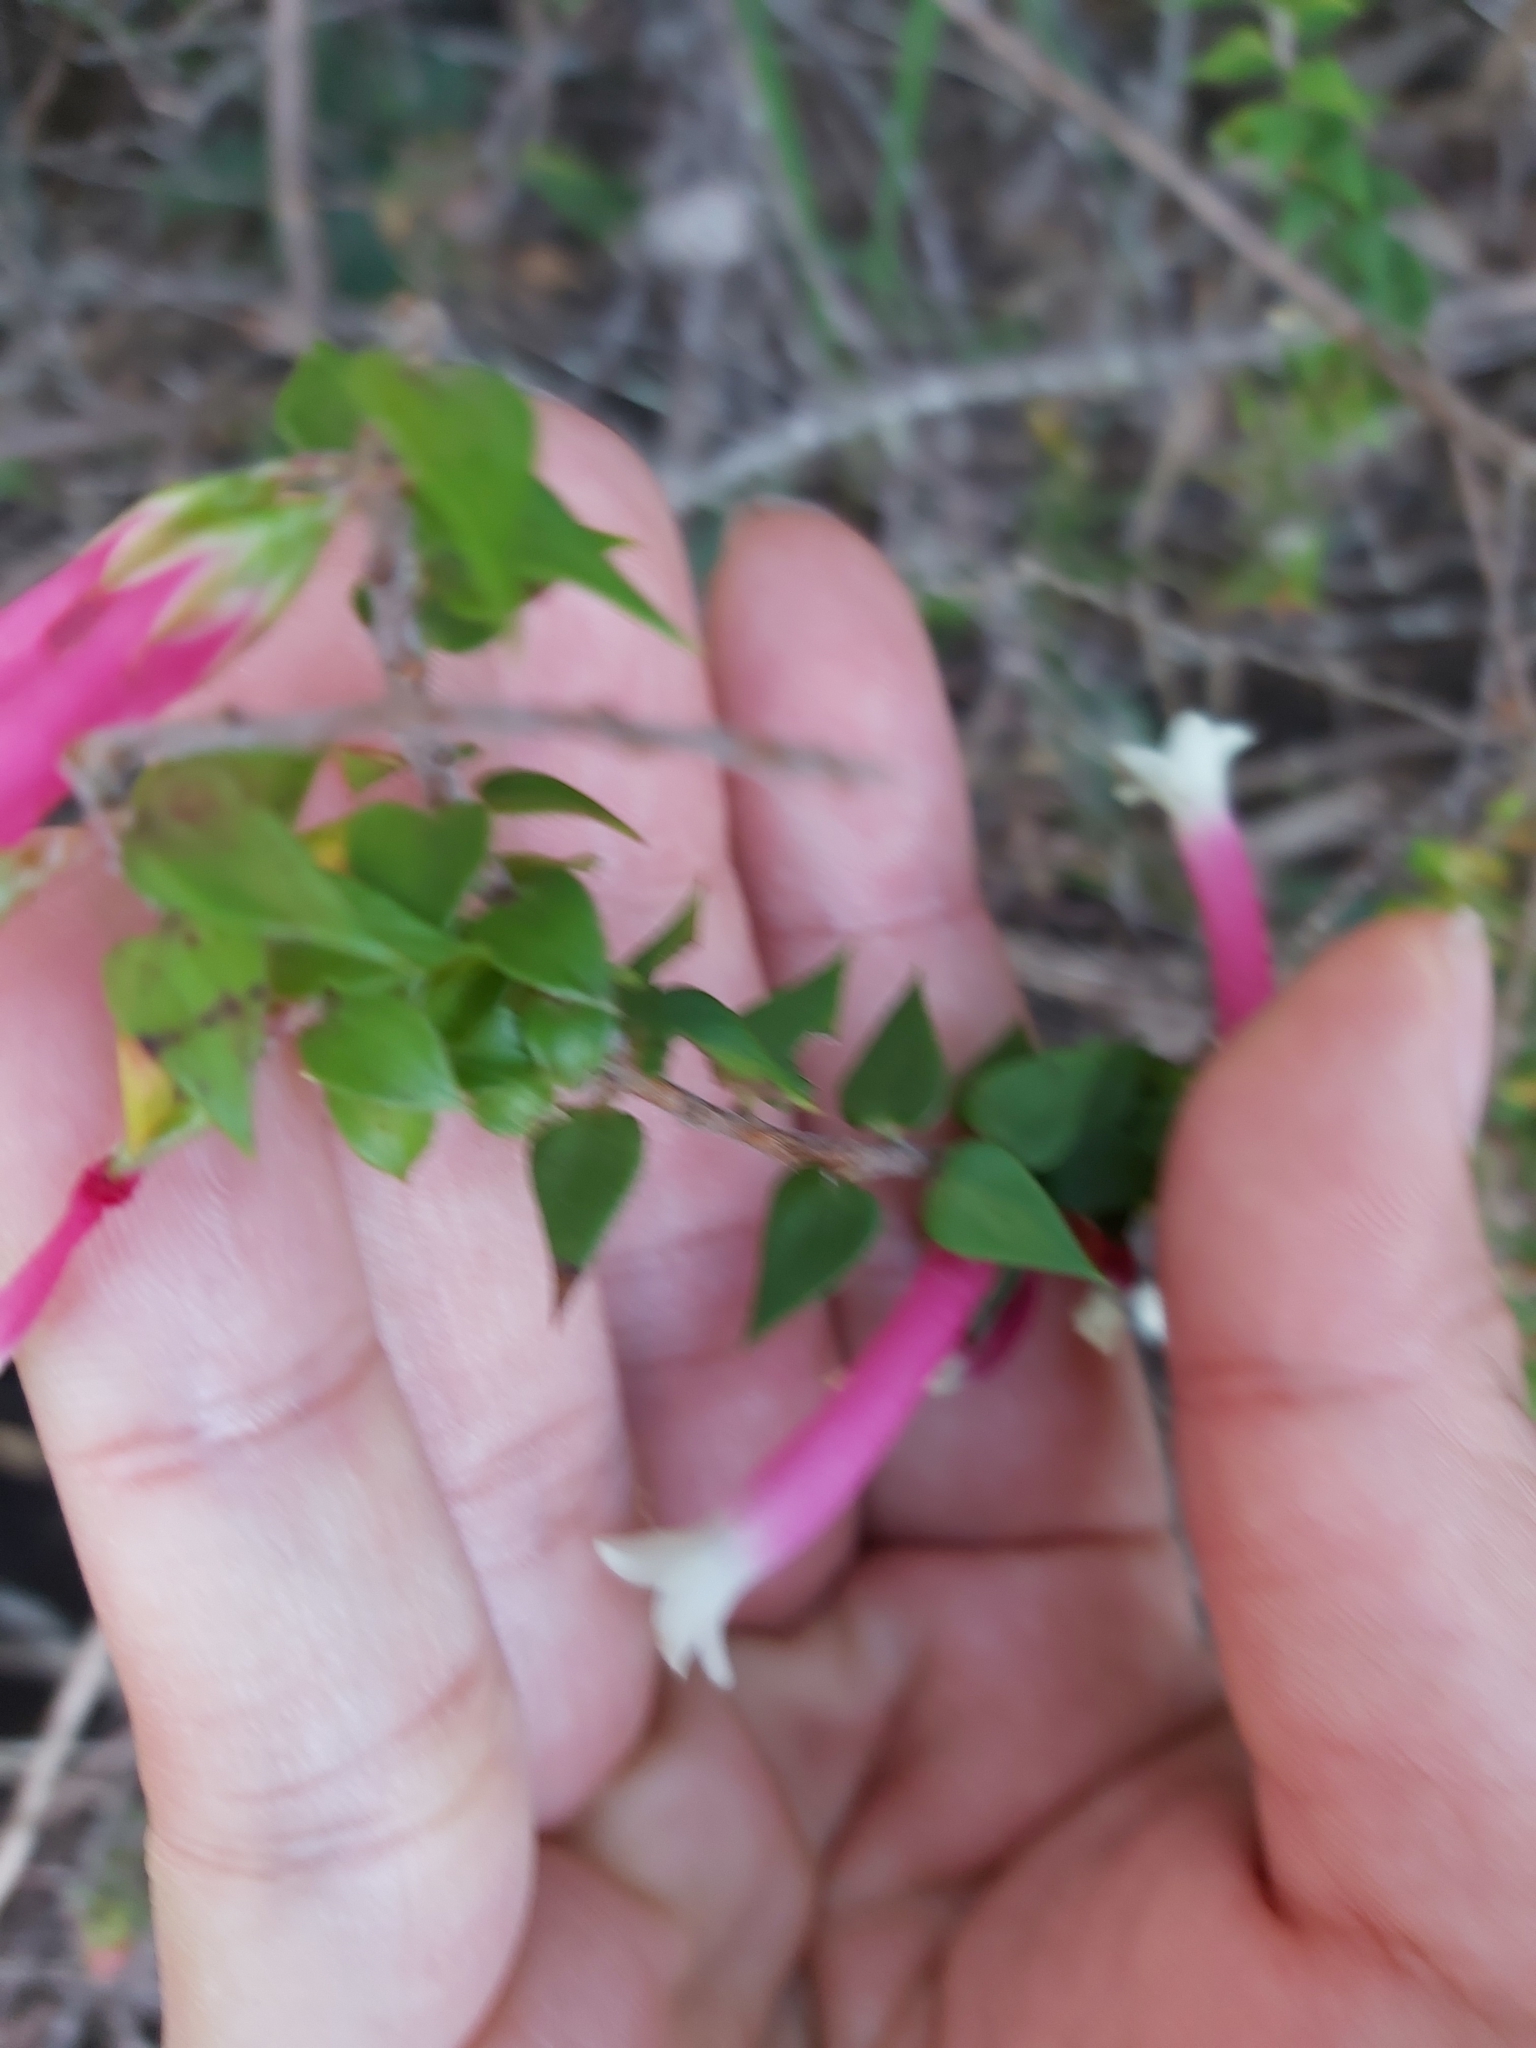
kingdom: Plantae
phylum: Tracheophyta
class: Magnoliopsida
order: Ericales
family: Ericaceae
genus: Epacris
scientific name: Epacris longiflora
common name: Fuchsia-heath
